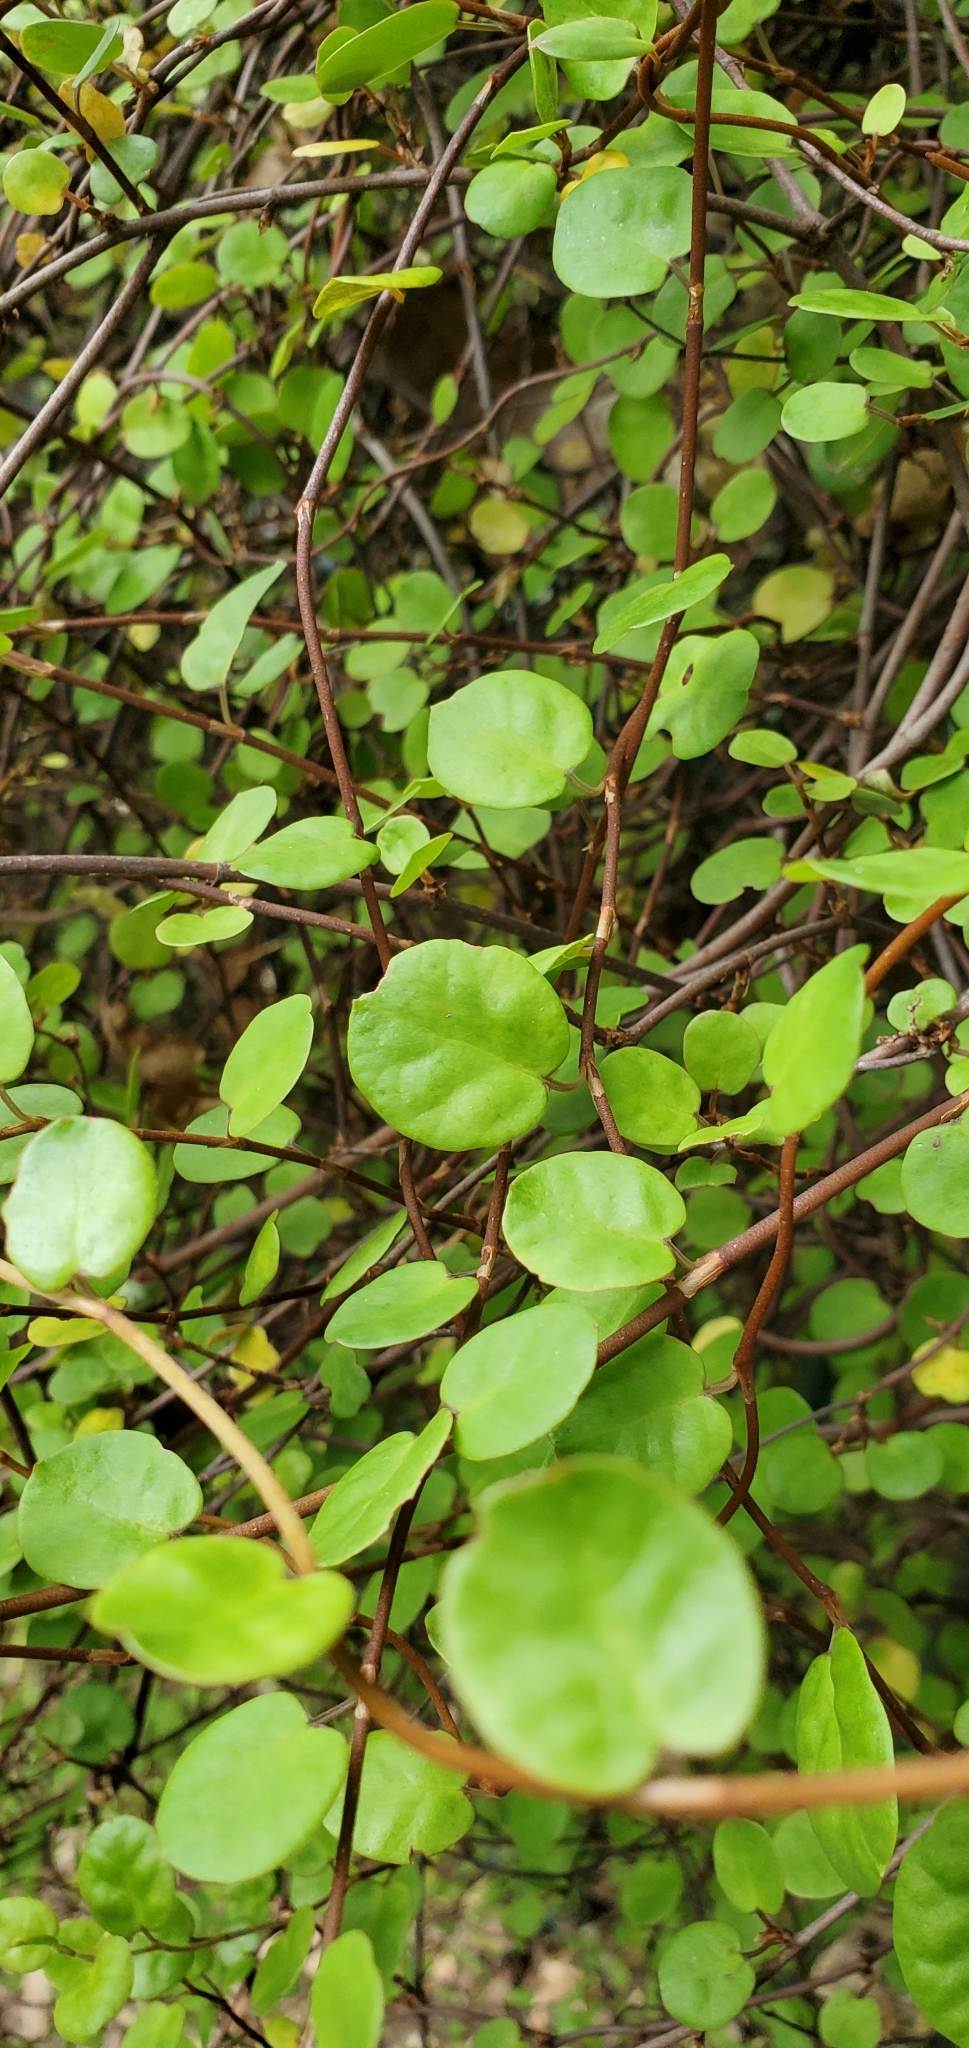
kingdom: Plantae
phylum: Tracheophyta
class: Magnoliopsida
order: Caryophyllales
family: Polygonaceae
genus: Muehlenbeckia
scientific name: Muehlenbeckia complexa
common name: Wireplant
